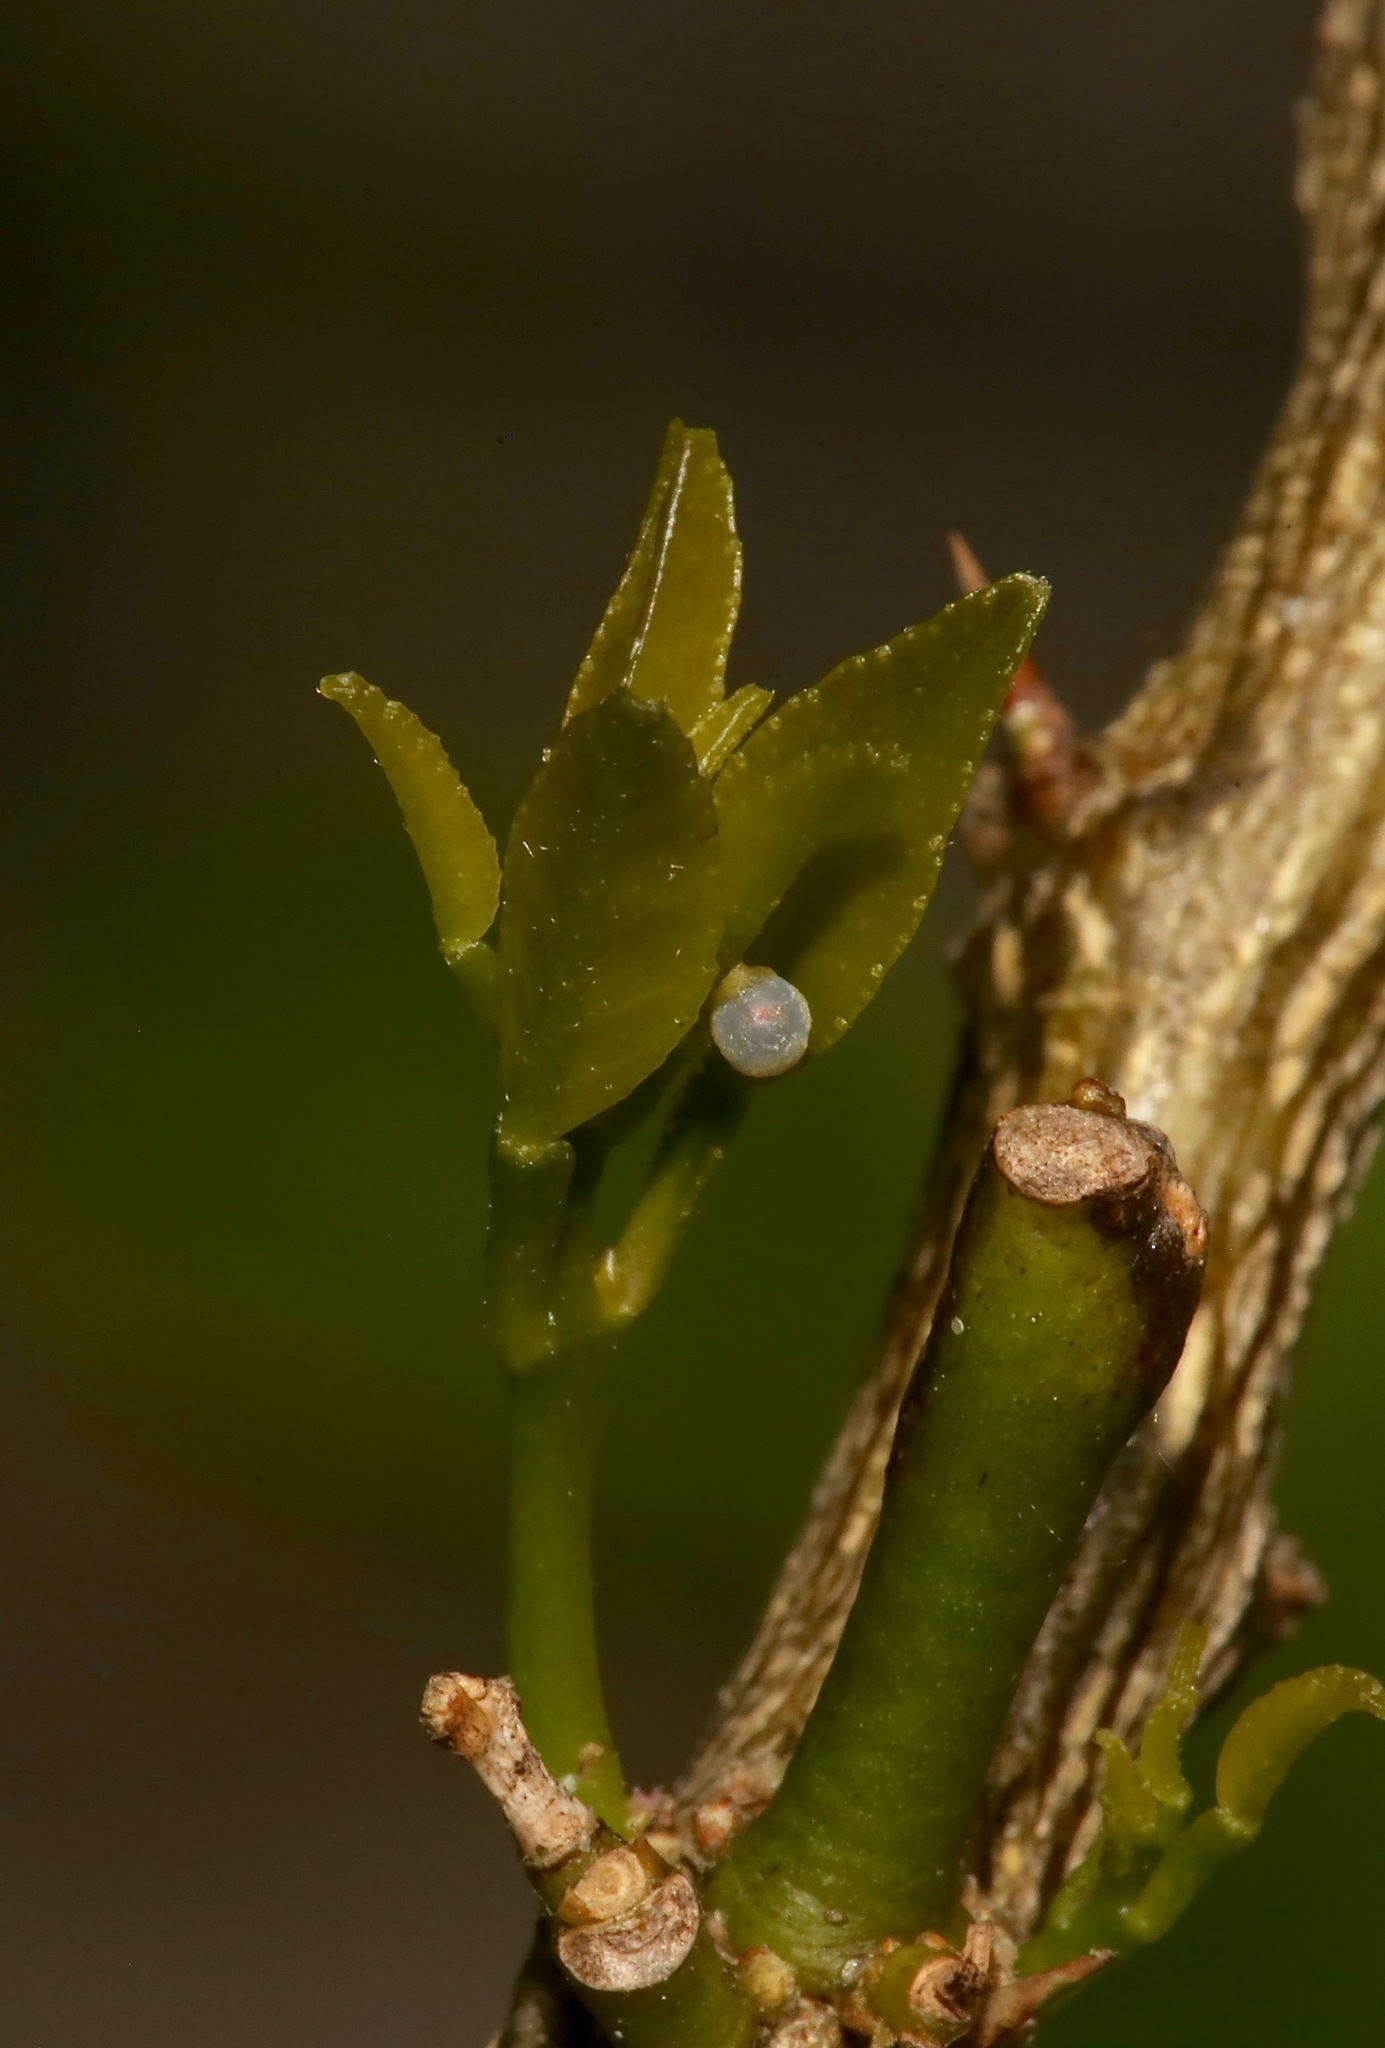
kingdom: Animalia
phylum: Arthropoda
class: Insecta
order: Lepidoptera
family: Papilionidae
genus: Papilio
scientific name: Papilio cresphontes
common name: Giant swallowtail
